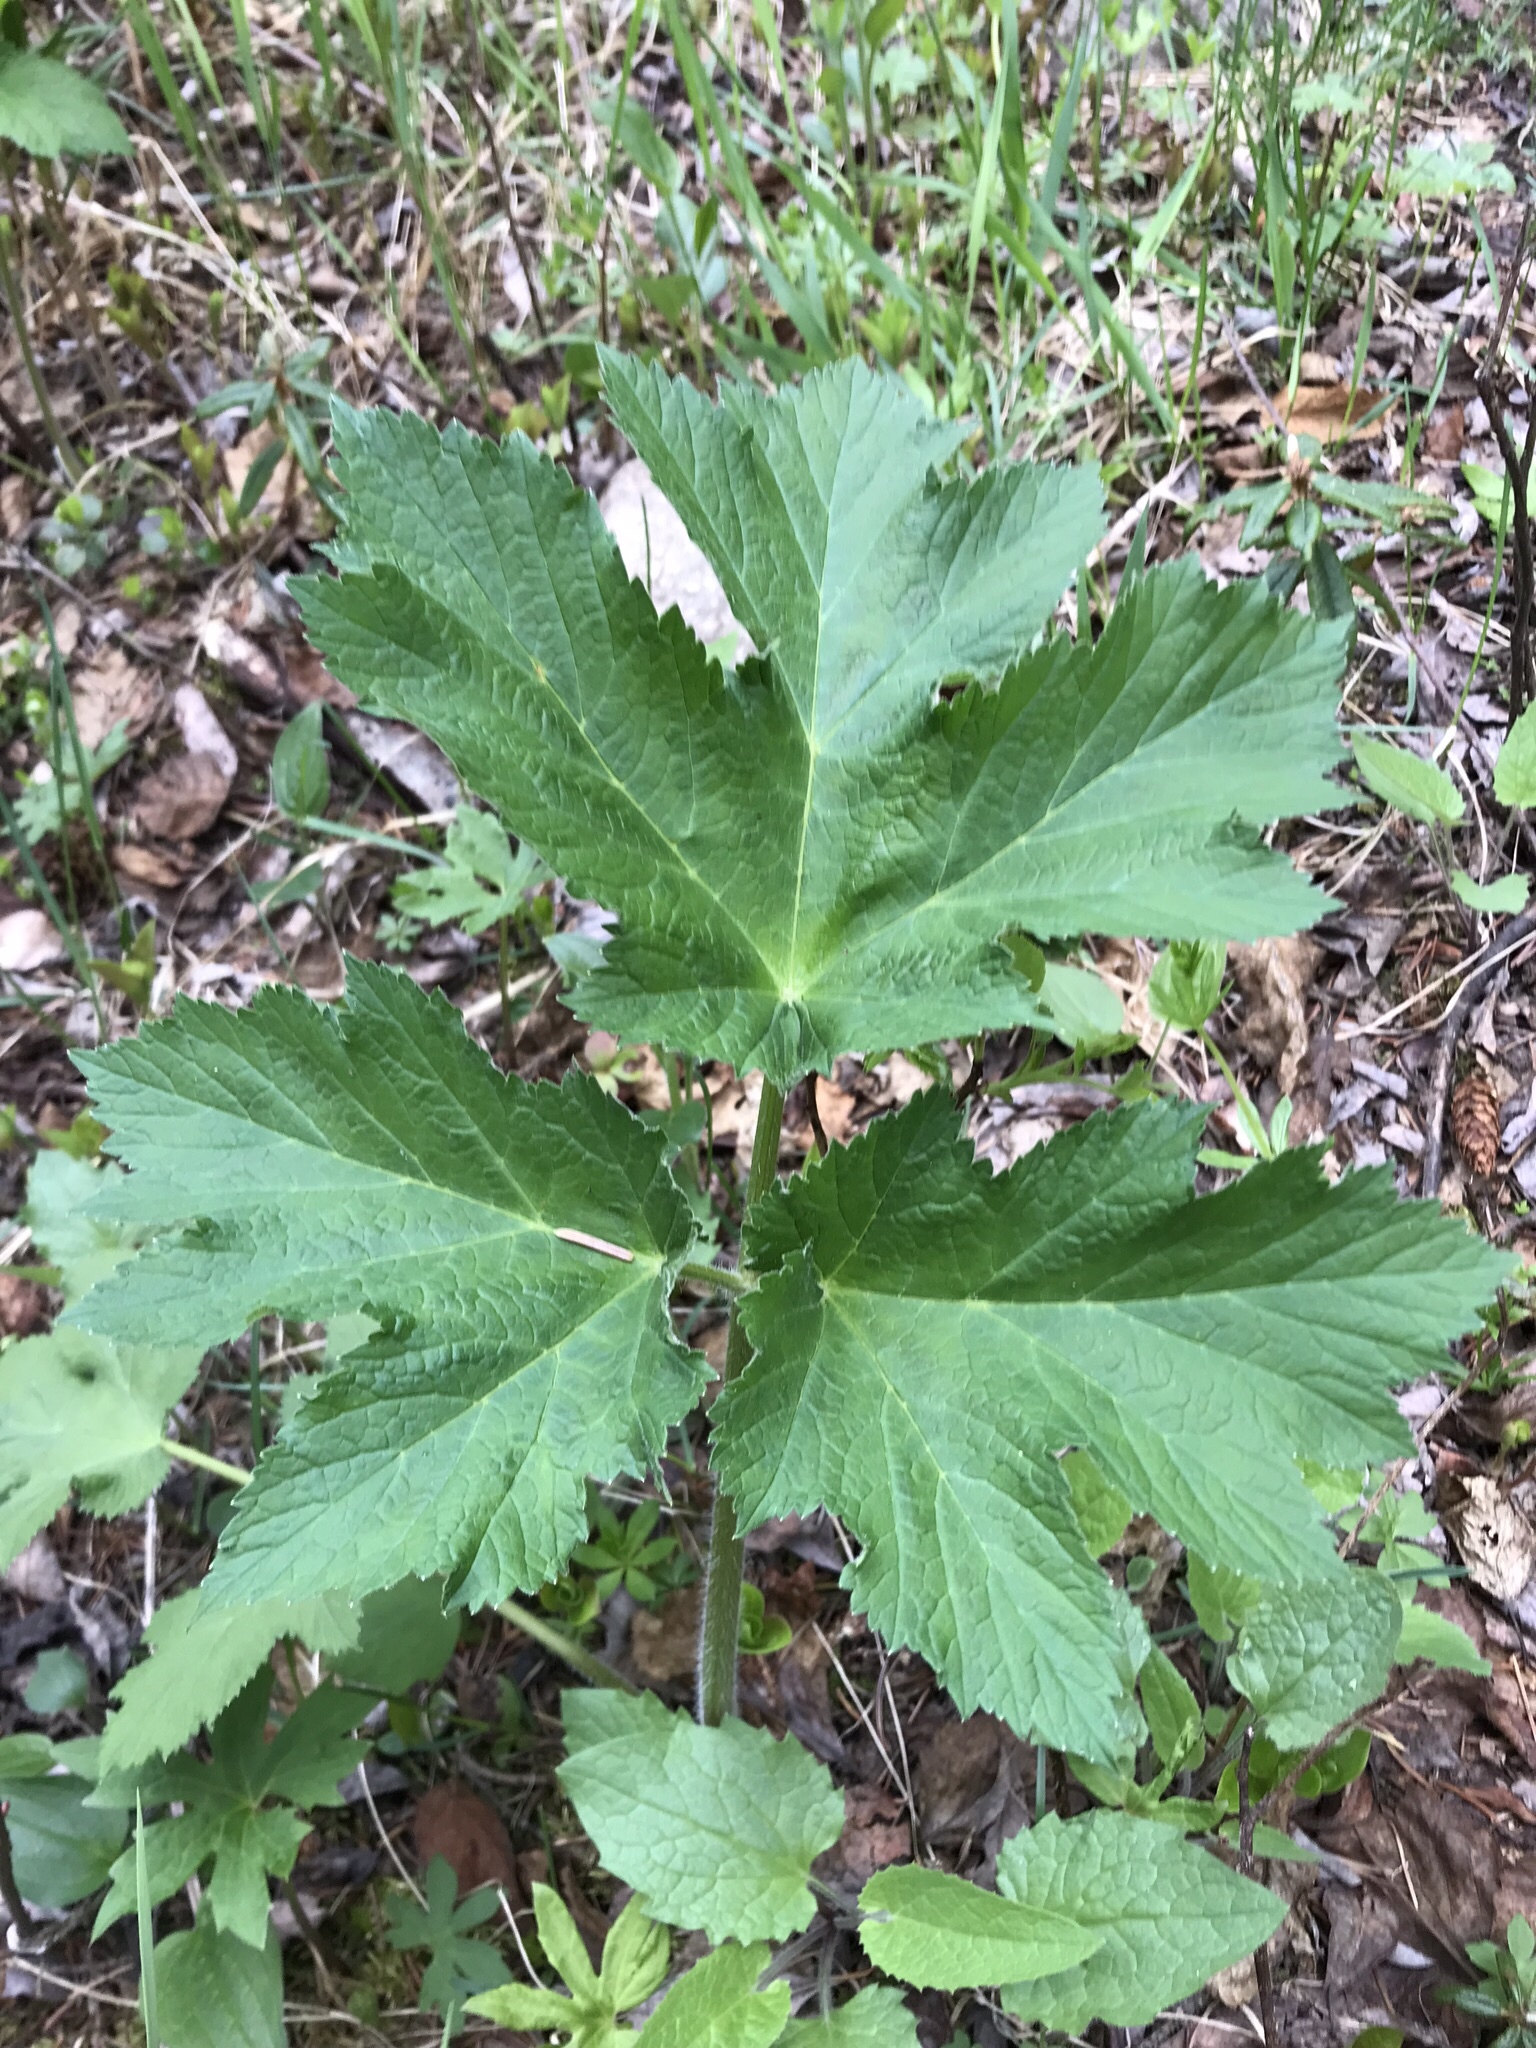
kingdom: Plantae
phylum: Tracheophyta
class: Magnoliopsida
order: Apiales
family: Apiaceae
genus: Heracleum
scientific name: Heracleum maximum
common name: American cow parsnip
